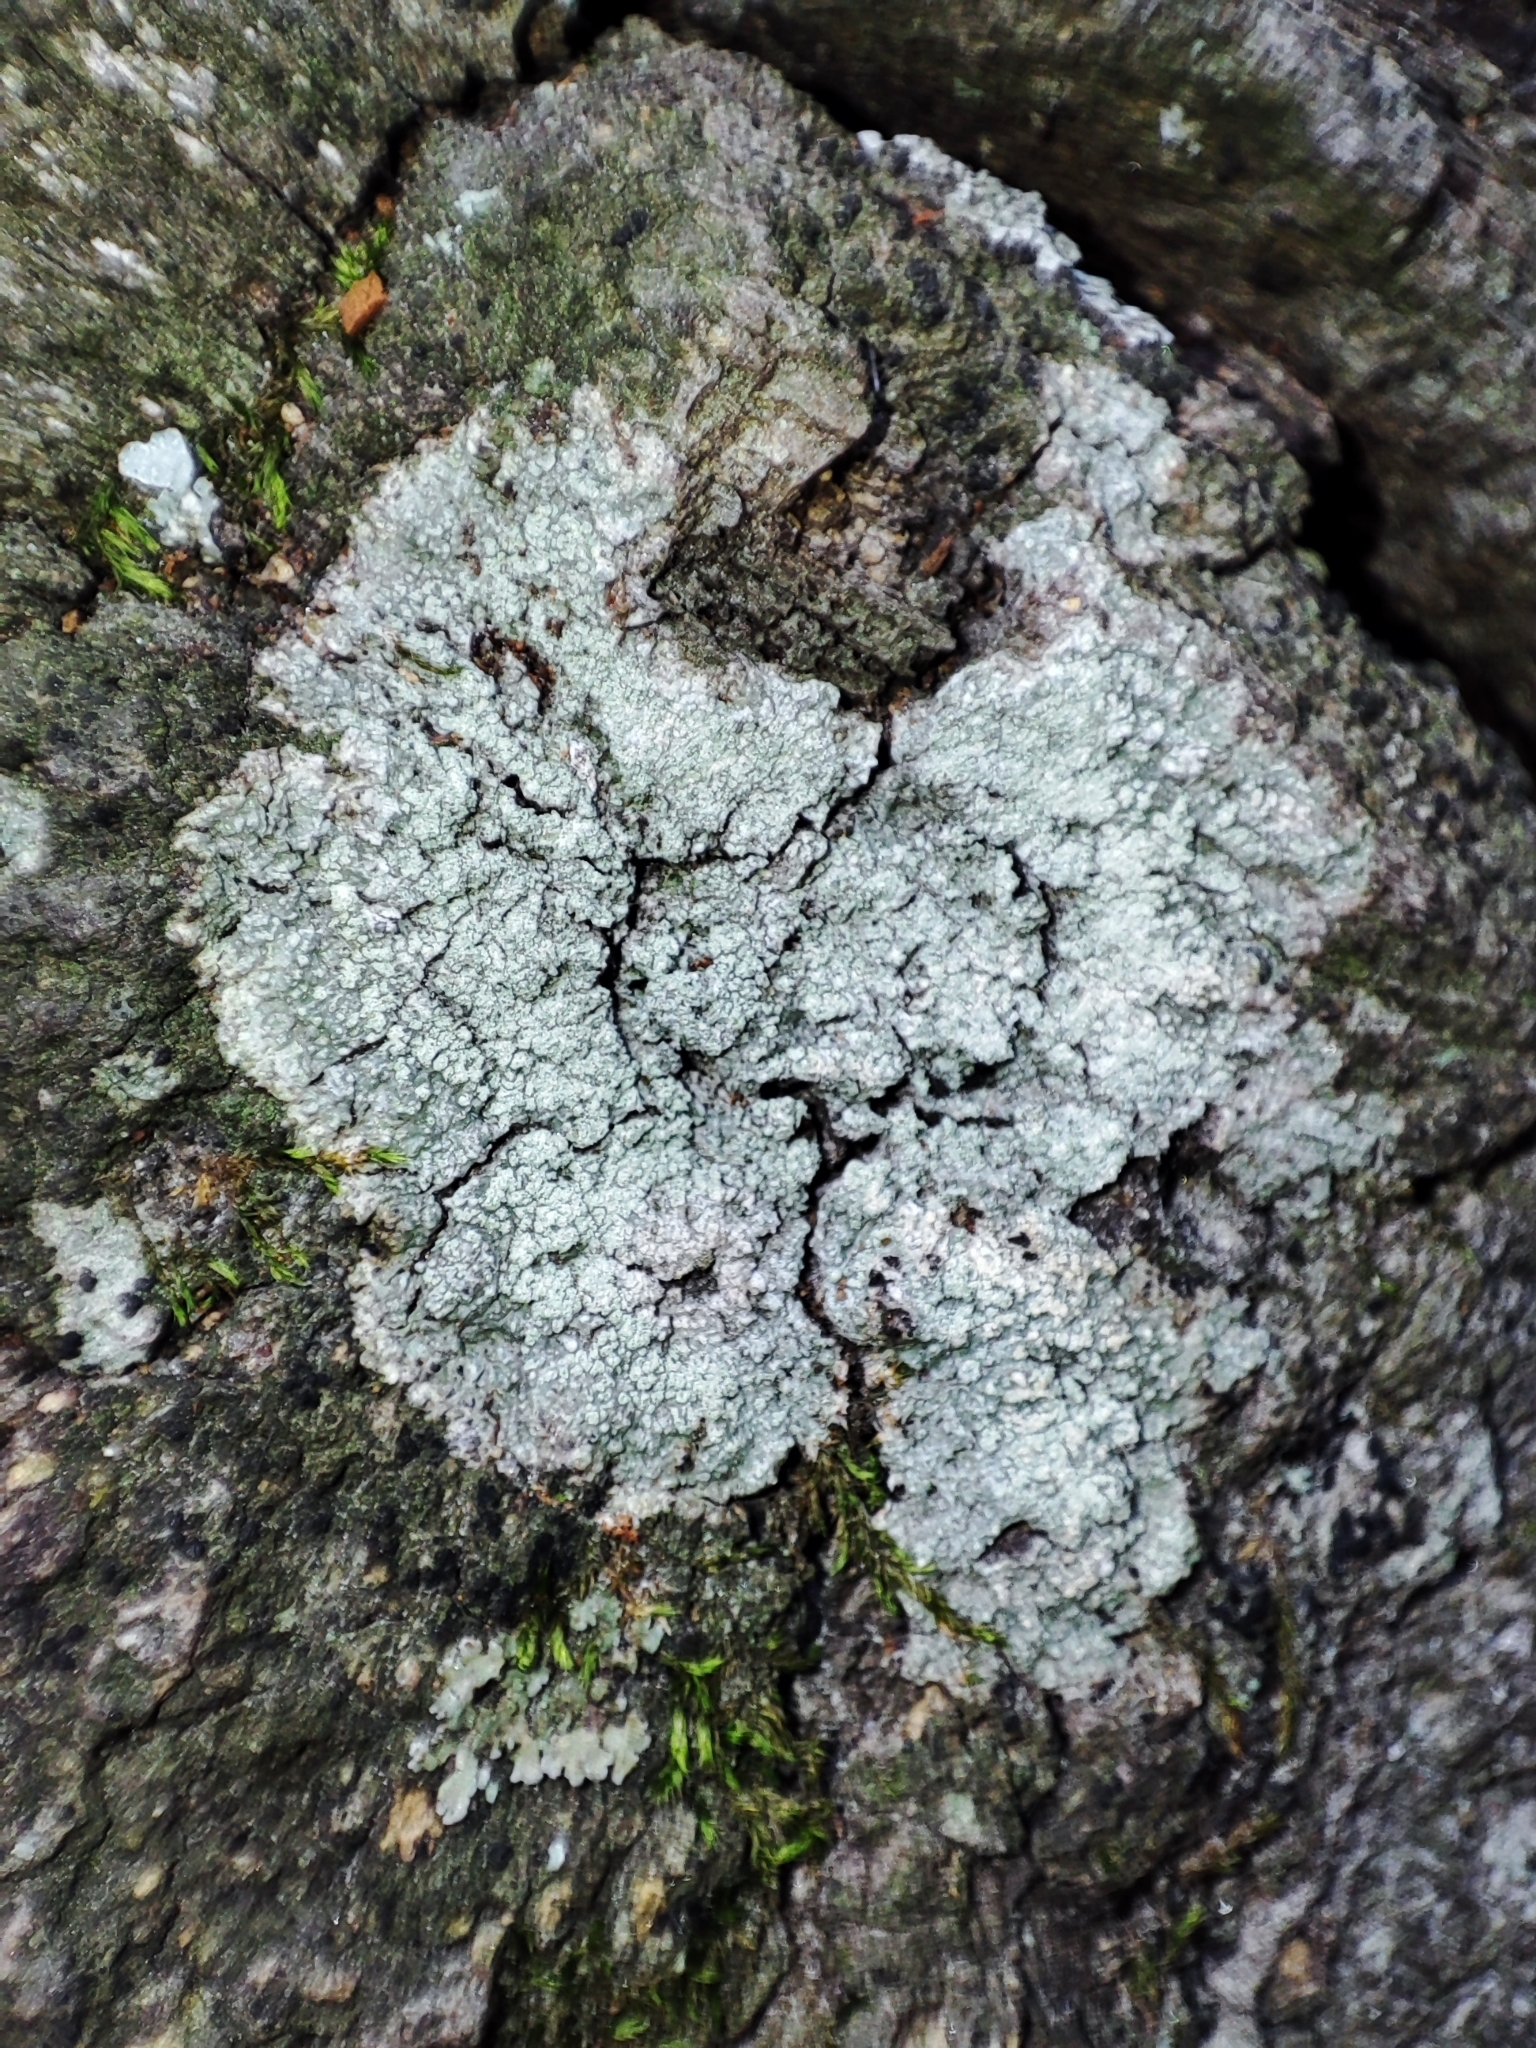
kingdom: Fungi
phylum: Ascomycota
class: Lecanoromycetes
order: Pertusariales
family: Pertusariaceae
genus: Lepra
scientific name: Lepra albescens
